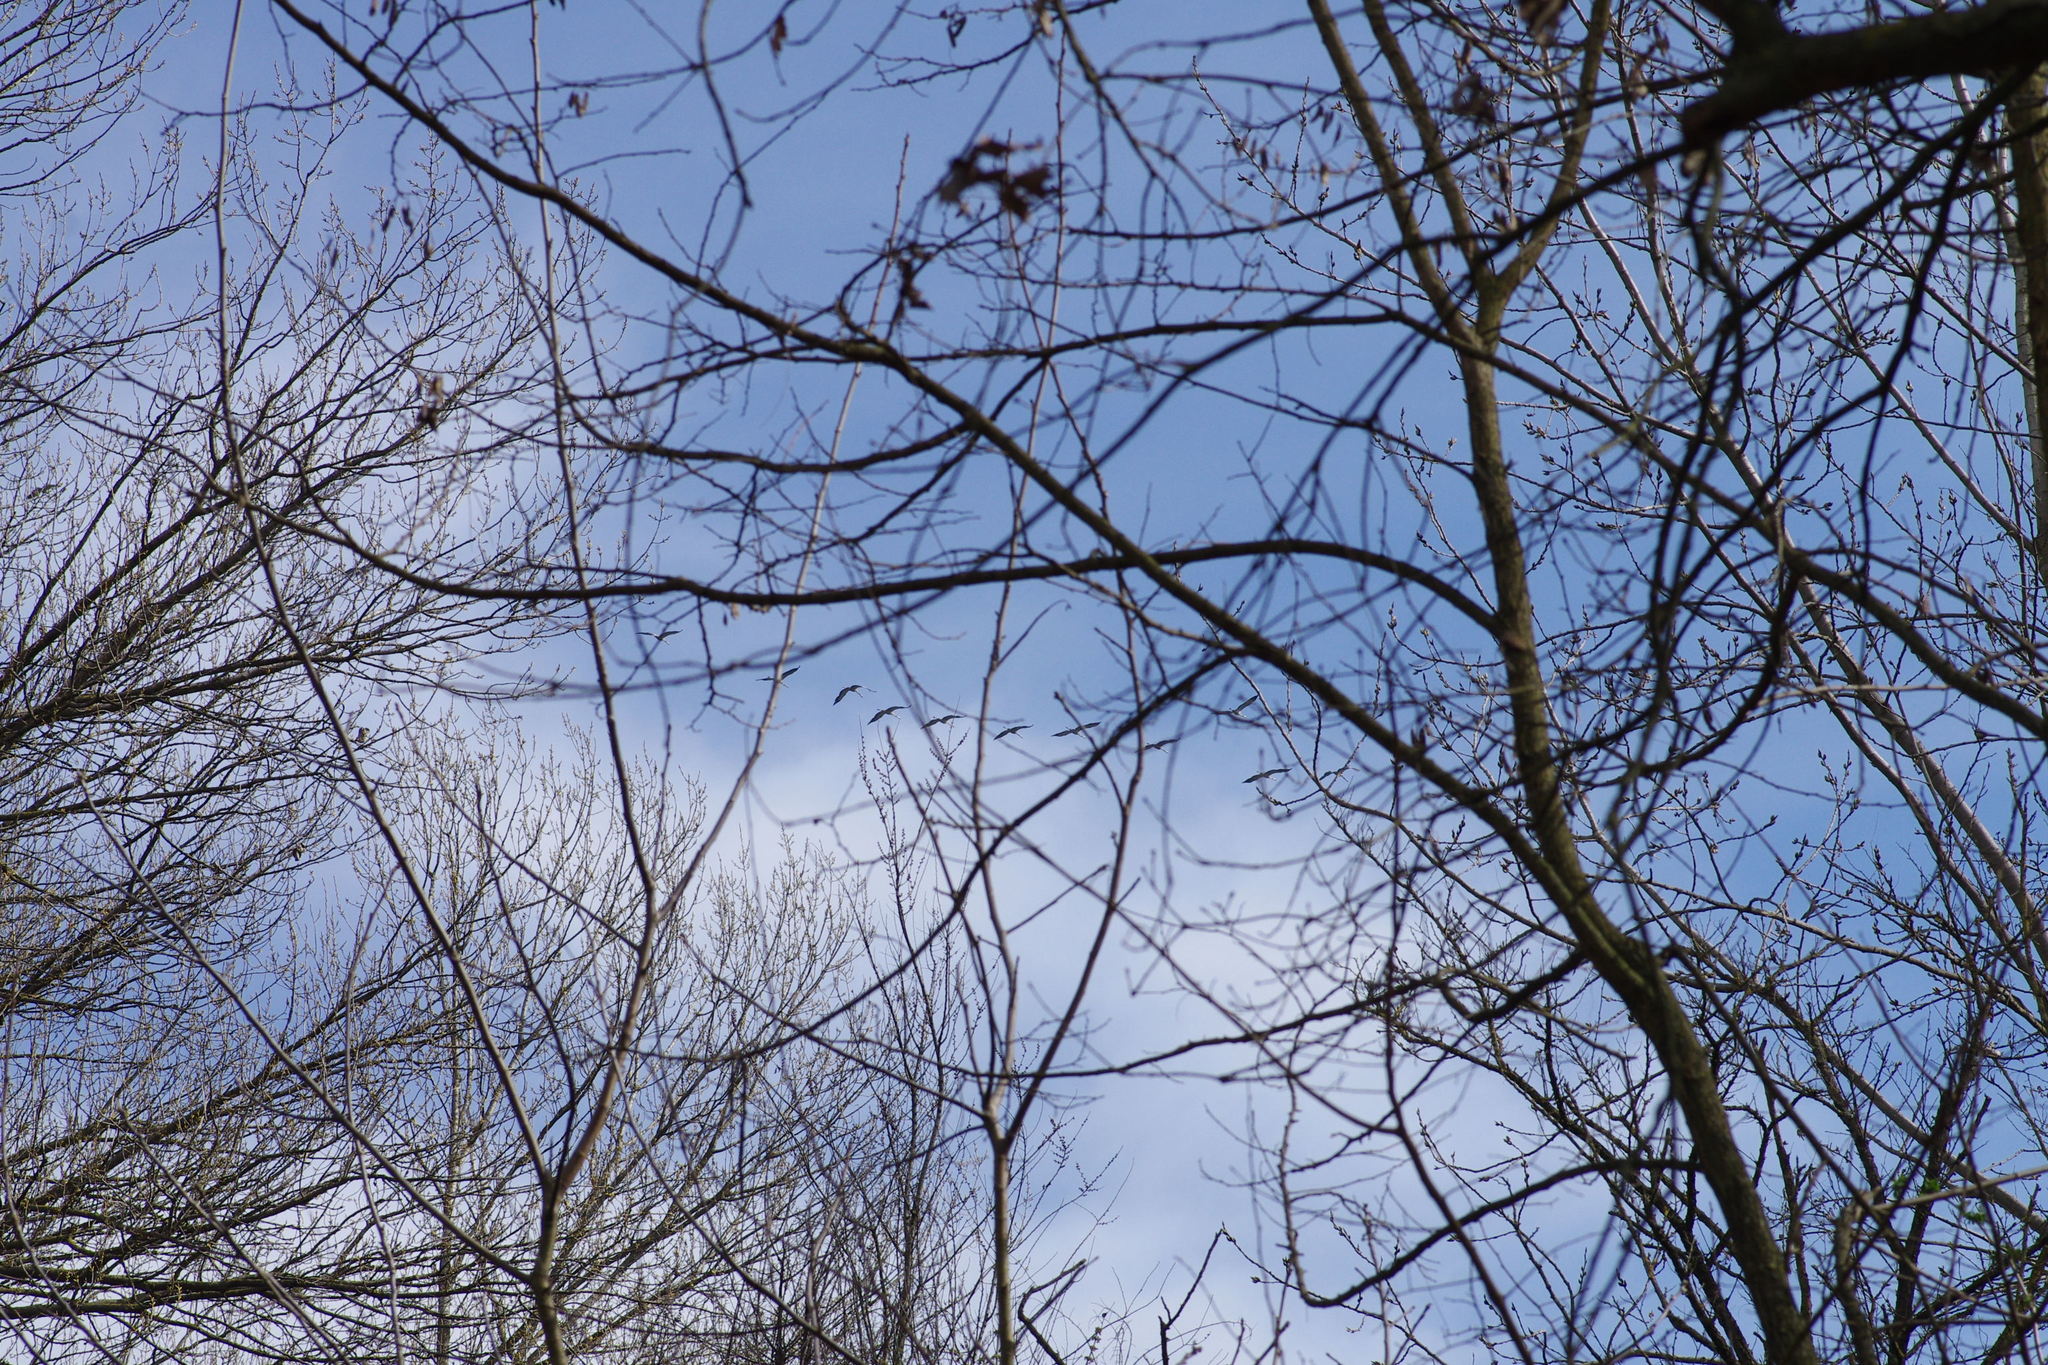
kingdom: Animalia
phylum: Chordata
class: Aves
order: Gruiformes
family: Gruidae
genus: Grus
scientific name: Grus grus
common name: Common crane
